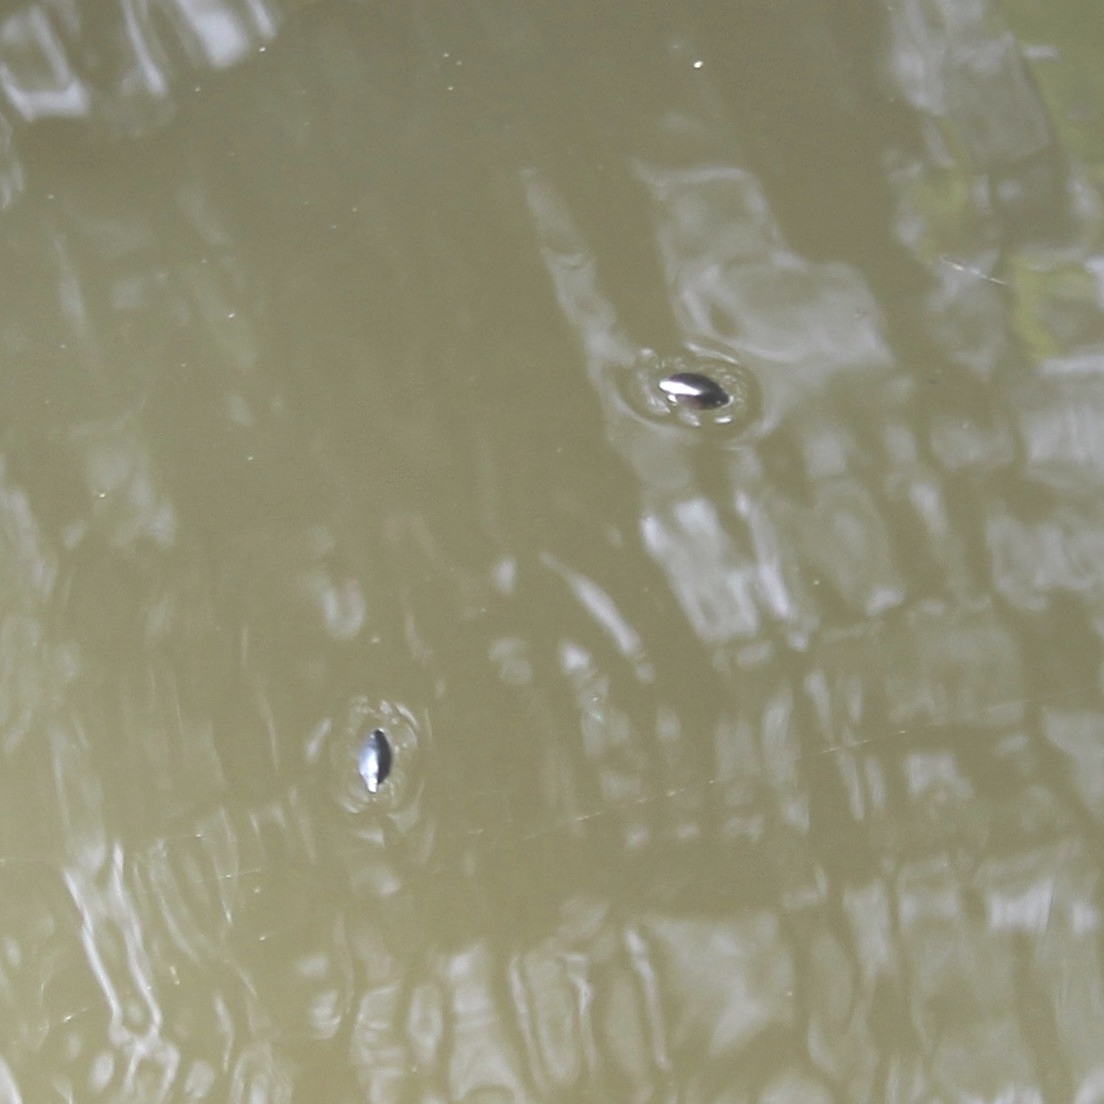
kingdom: Animalia
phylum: Arthropoda
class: Insecta
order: Coleoptera
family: Gyrinidae
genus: Dineutus
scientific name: Dineutus
